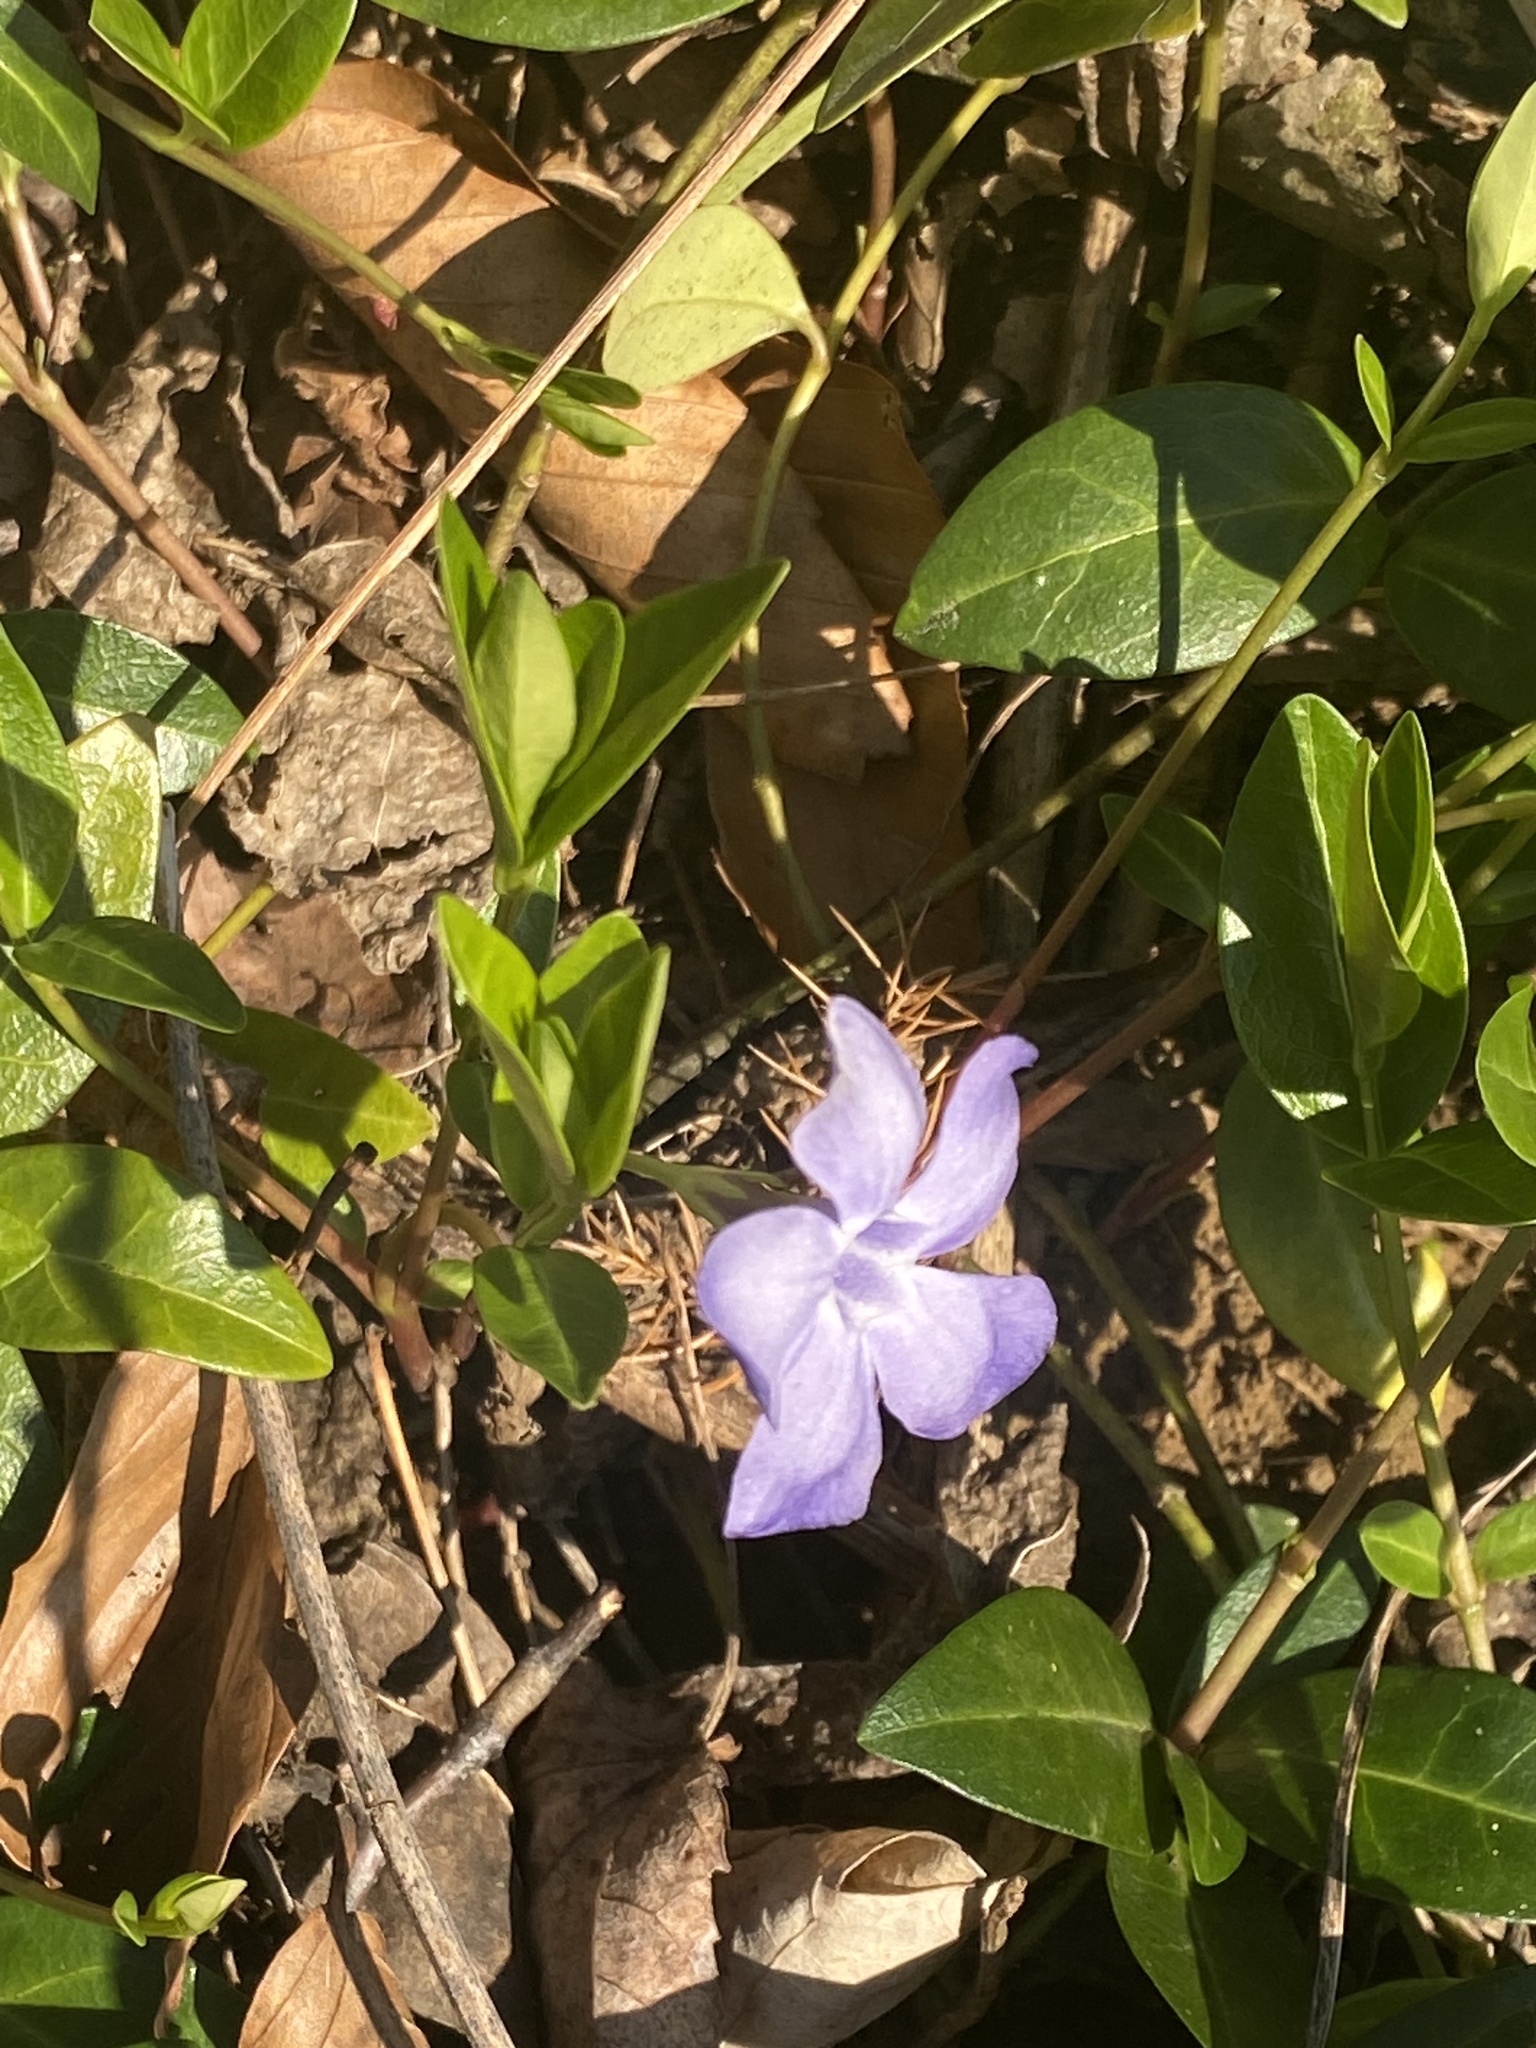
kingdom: Plantae
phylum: Tracheophyta
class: Magnoliopsida
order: Gentianales
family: Apocynaceae
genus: Vinca
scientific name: Vinca minor
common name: Lesser periwinkle
